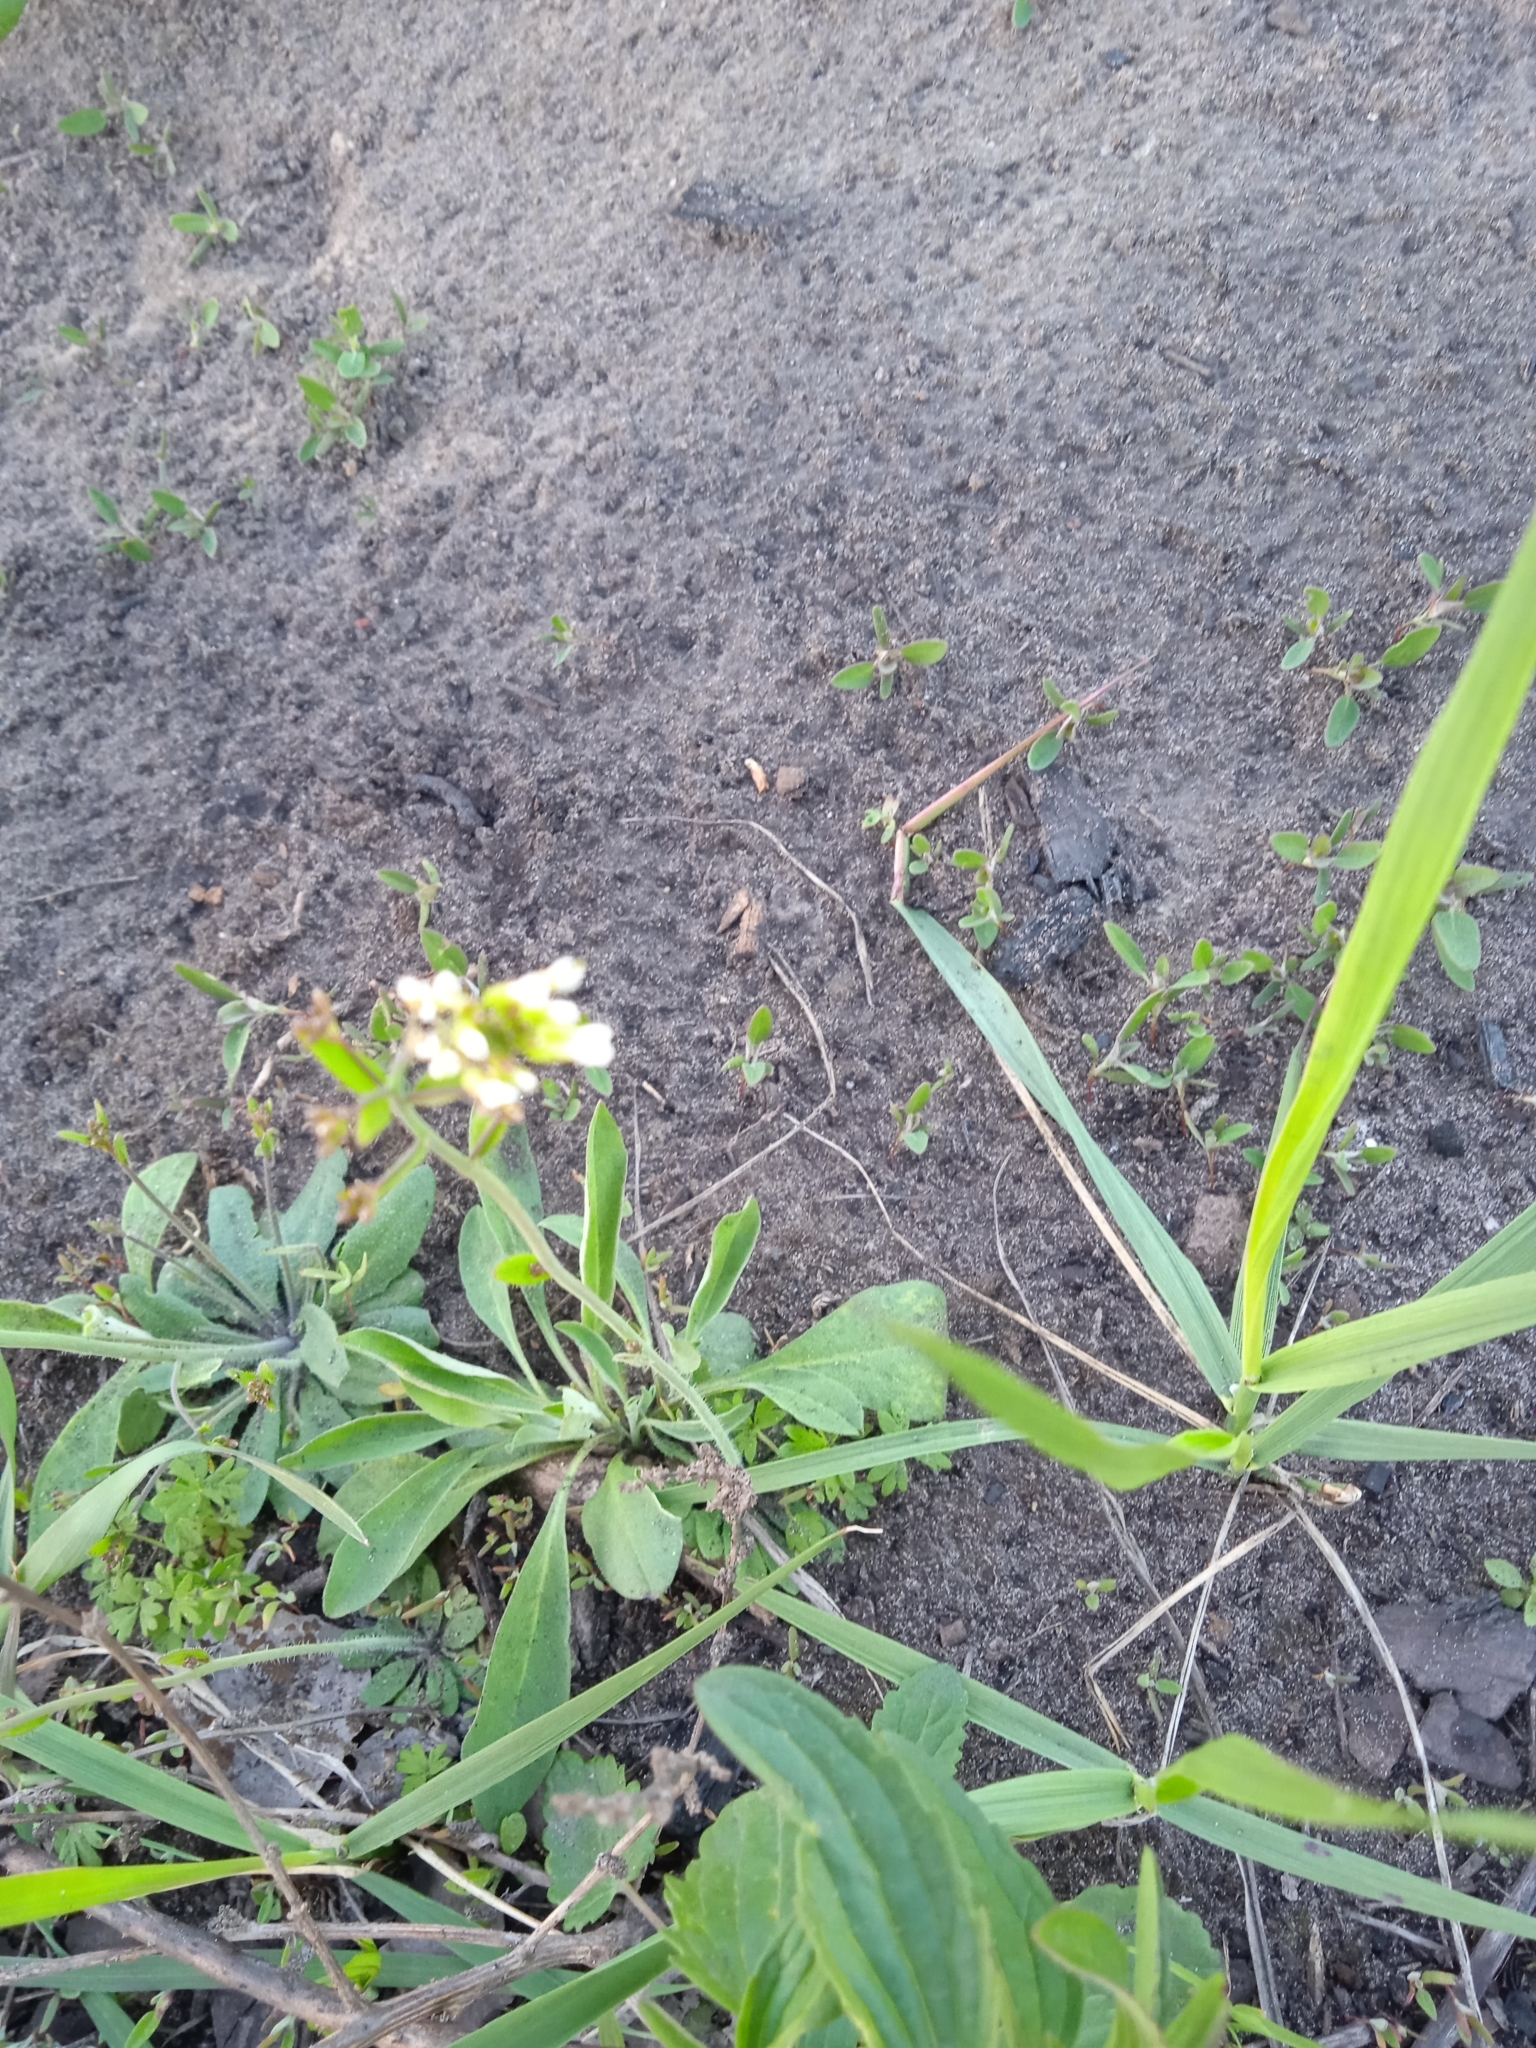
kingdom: Plantae
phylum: Tracheophyta
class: Magnoliopsida
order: Brassicales
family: Brassicaceae
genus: Arabidopsis
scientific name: Arabidopsis thaliana
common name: Thale cress
